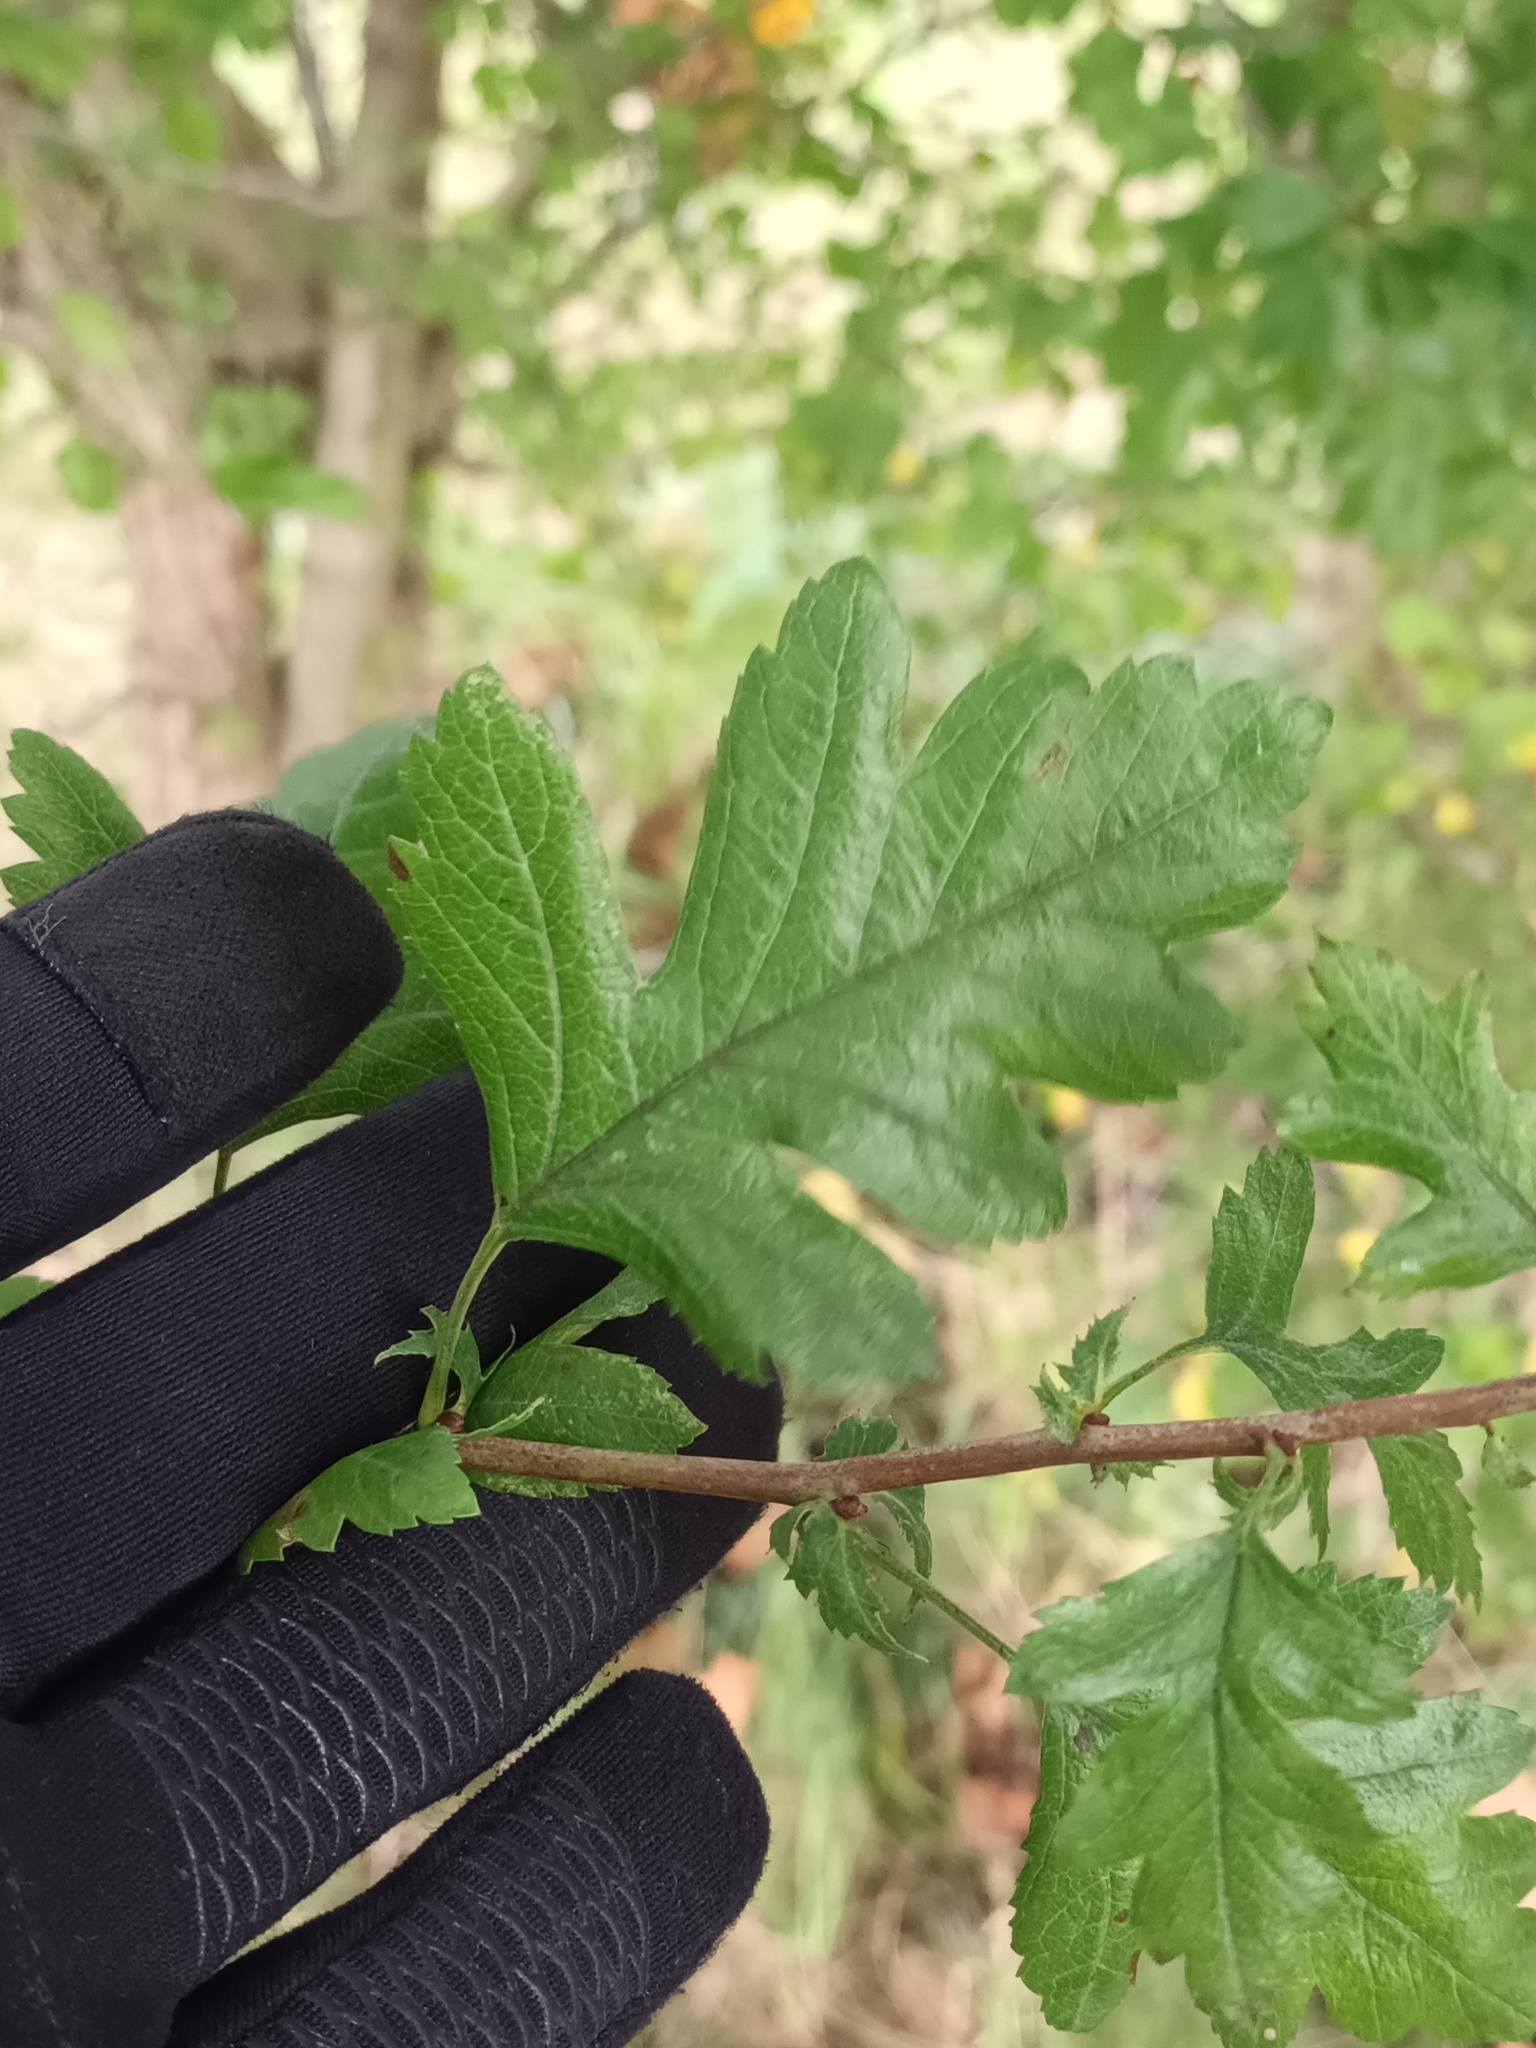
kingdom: Plantae
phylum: Tracheophyta
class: Magnoliopsida
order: Rosales
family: Rosaceae
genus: Crataegus
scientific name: Crataegus monogyna
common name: Hawthorn
